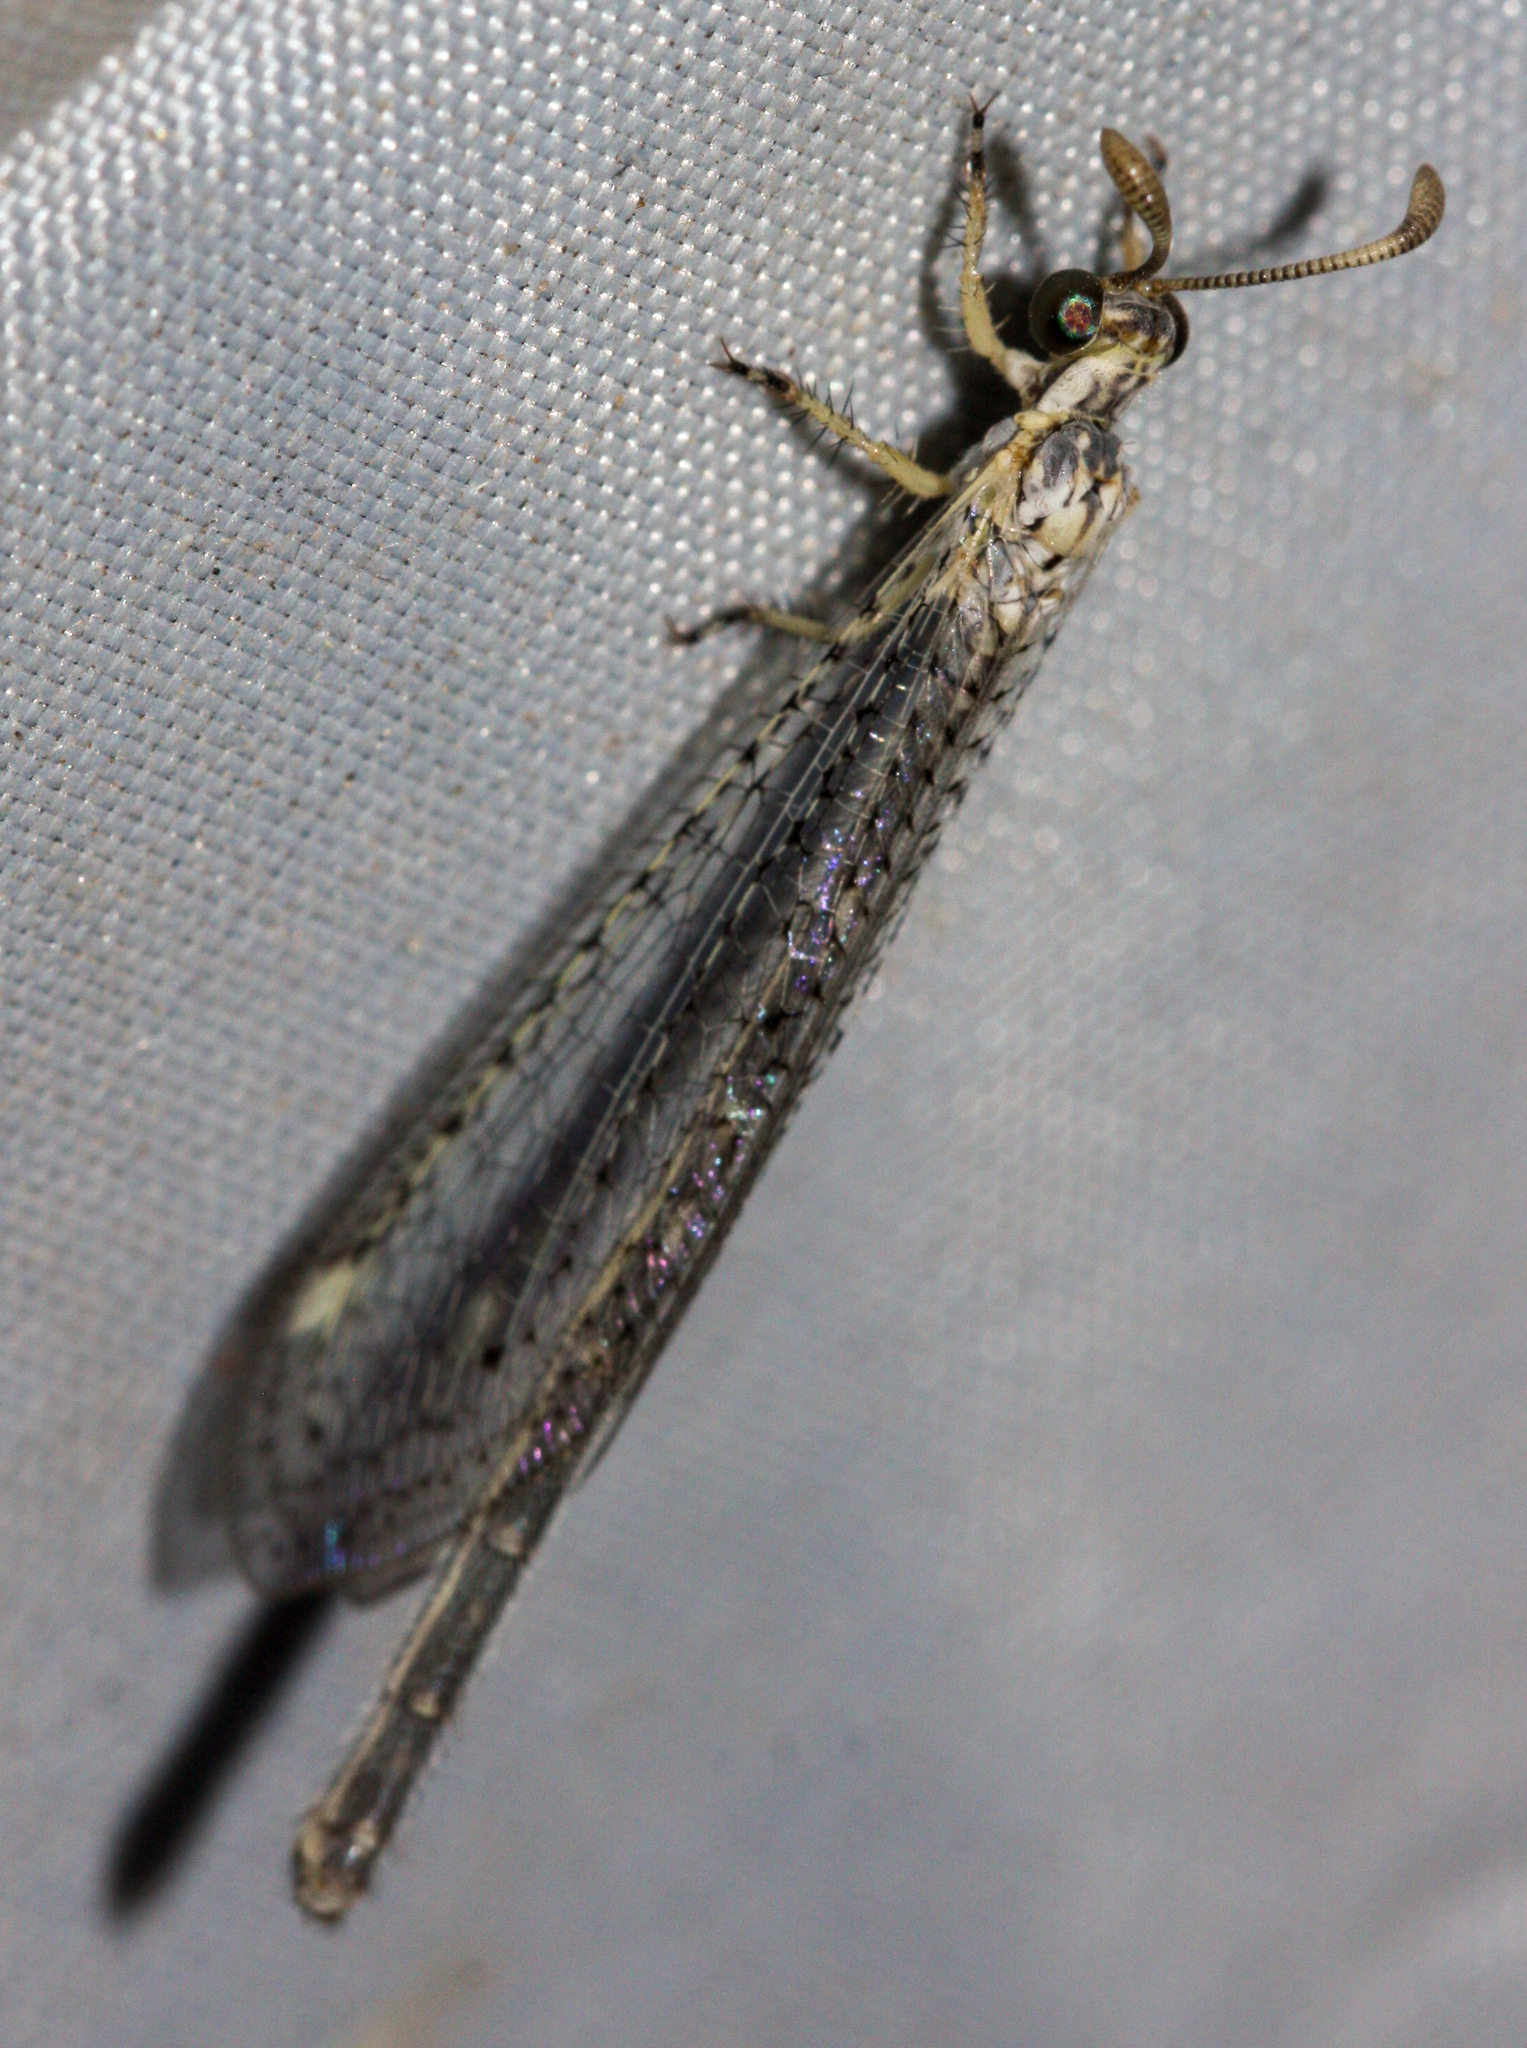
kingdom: Animalia
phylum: Arthropoda
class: Insecta
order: Neuroptera
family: Myrmeleontidae
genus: Clathroneuria
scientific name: Clathroneuria coquilletti
